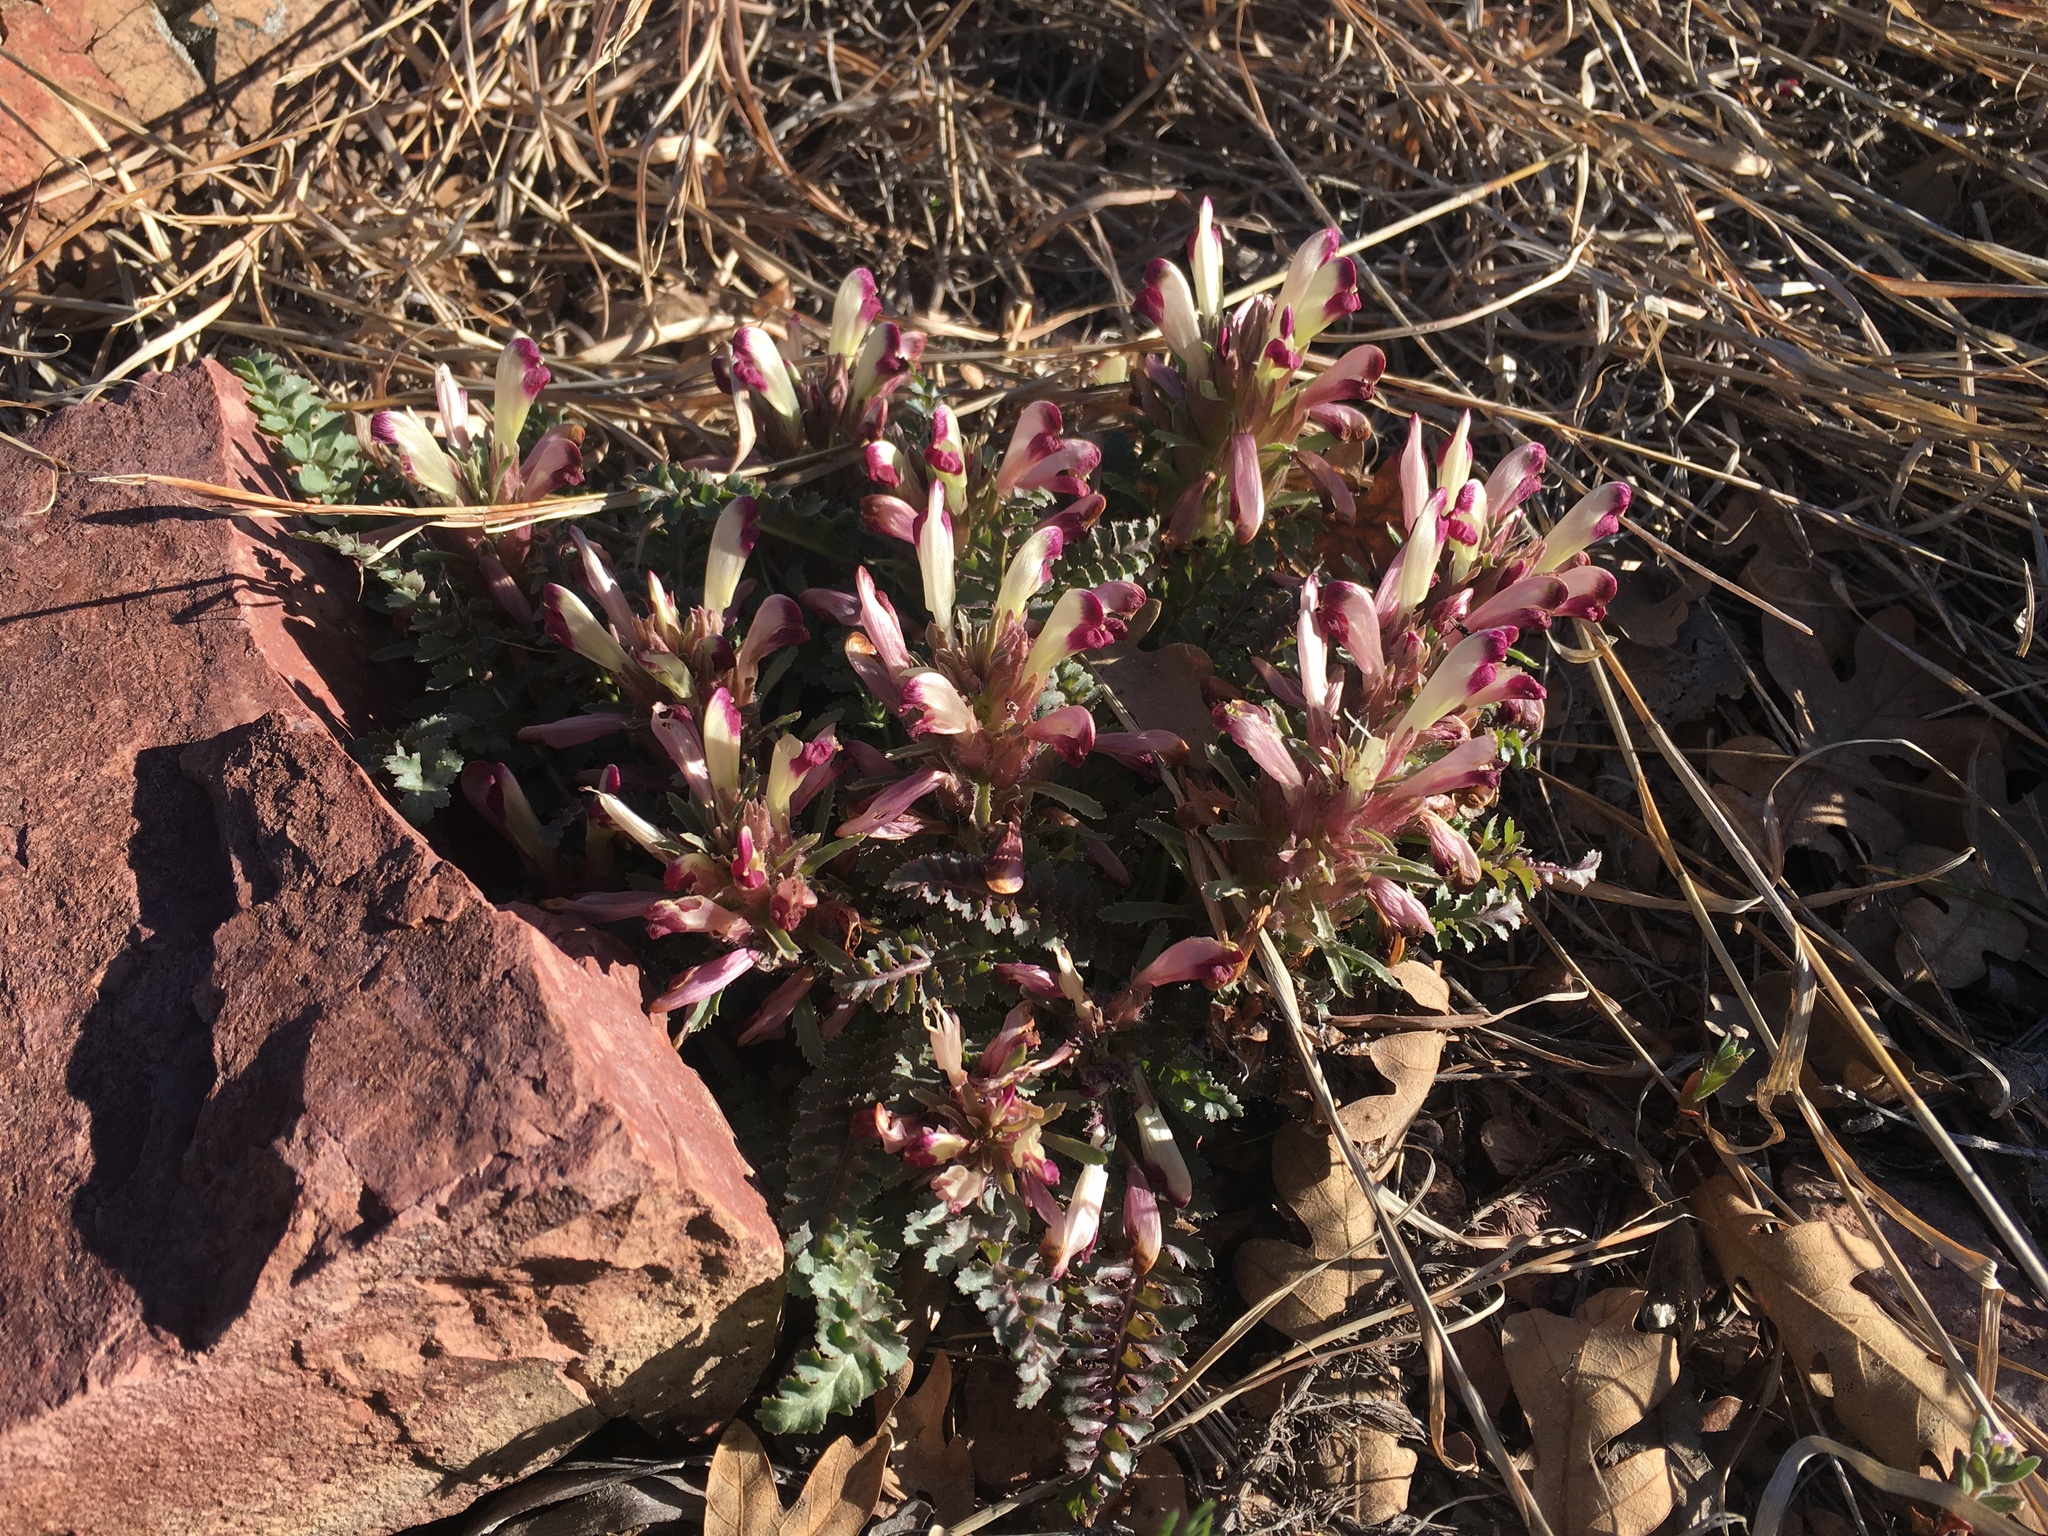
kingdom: Plantae
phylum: Tracheophyta
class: Magnoliopsida
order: Lamiales
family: Orobanchaceae
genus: Pedicularis
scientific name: Pedicularis centranthera
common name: Dwarf lousewort
